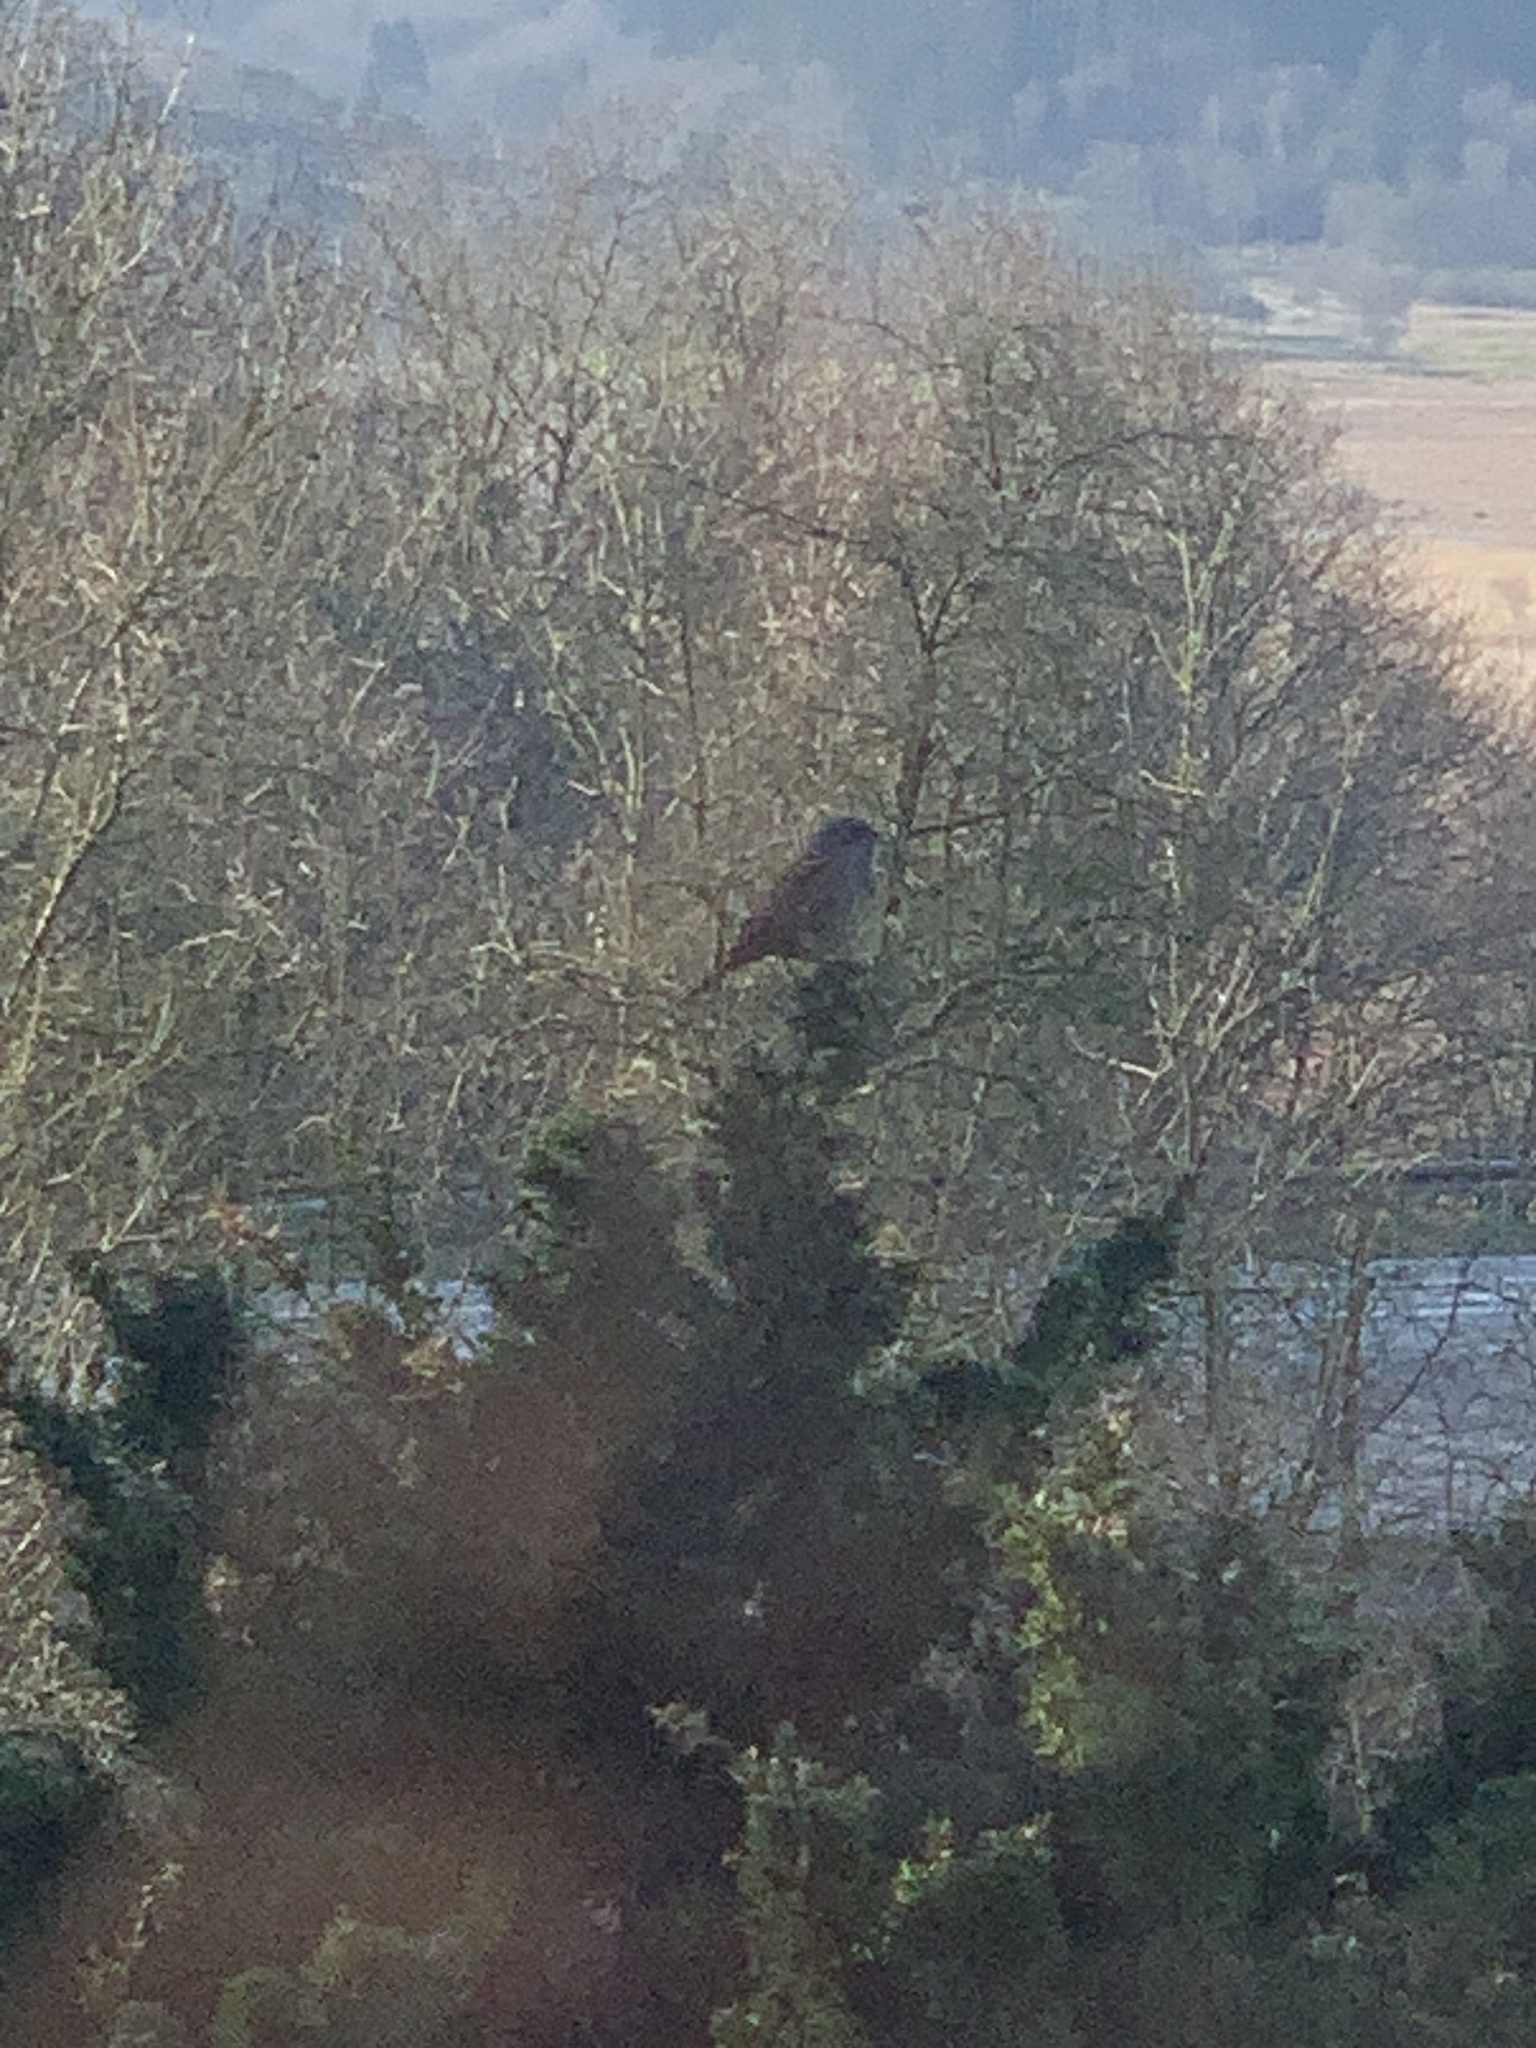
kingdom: Animalia
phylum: Chordata
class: Aves
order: Passeriformes
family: Prunellidae
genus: Prunella
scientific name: Prunella modularis
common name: Dunnock
